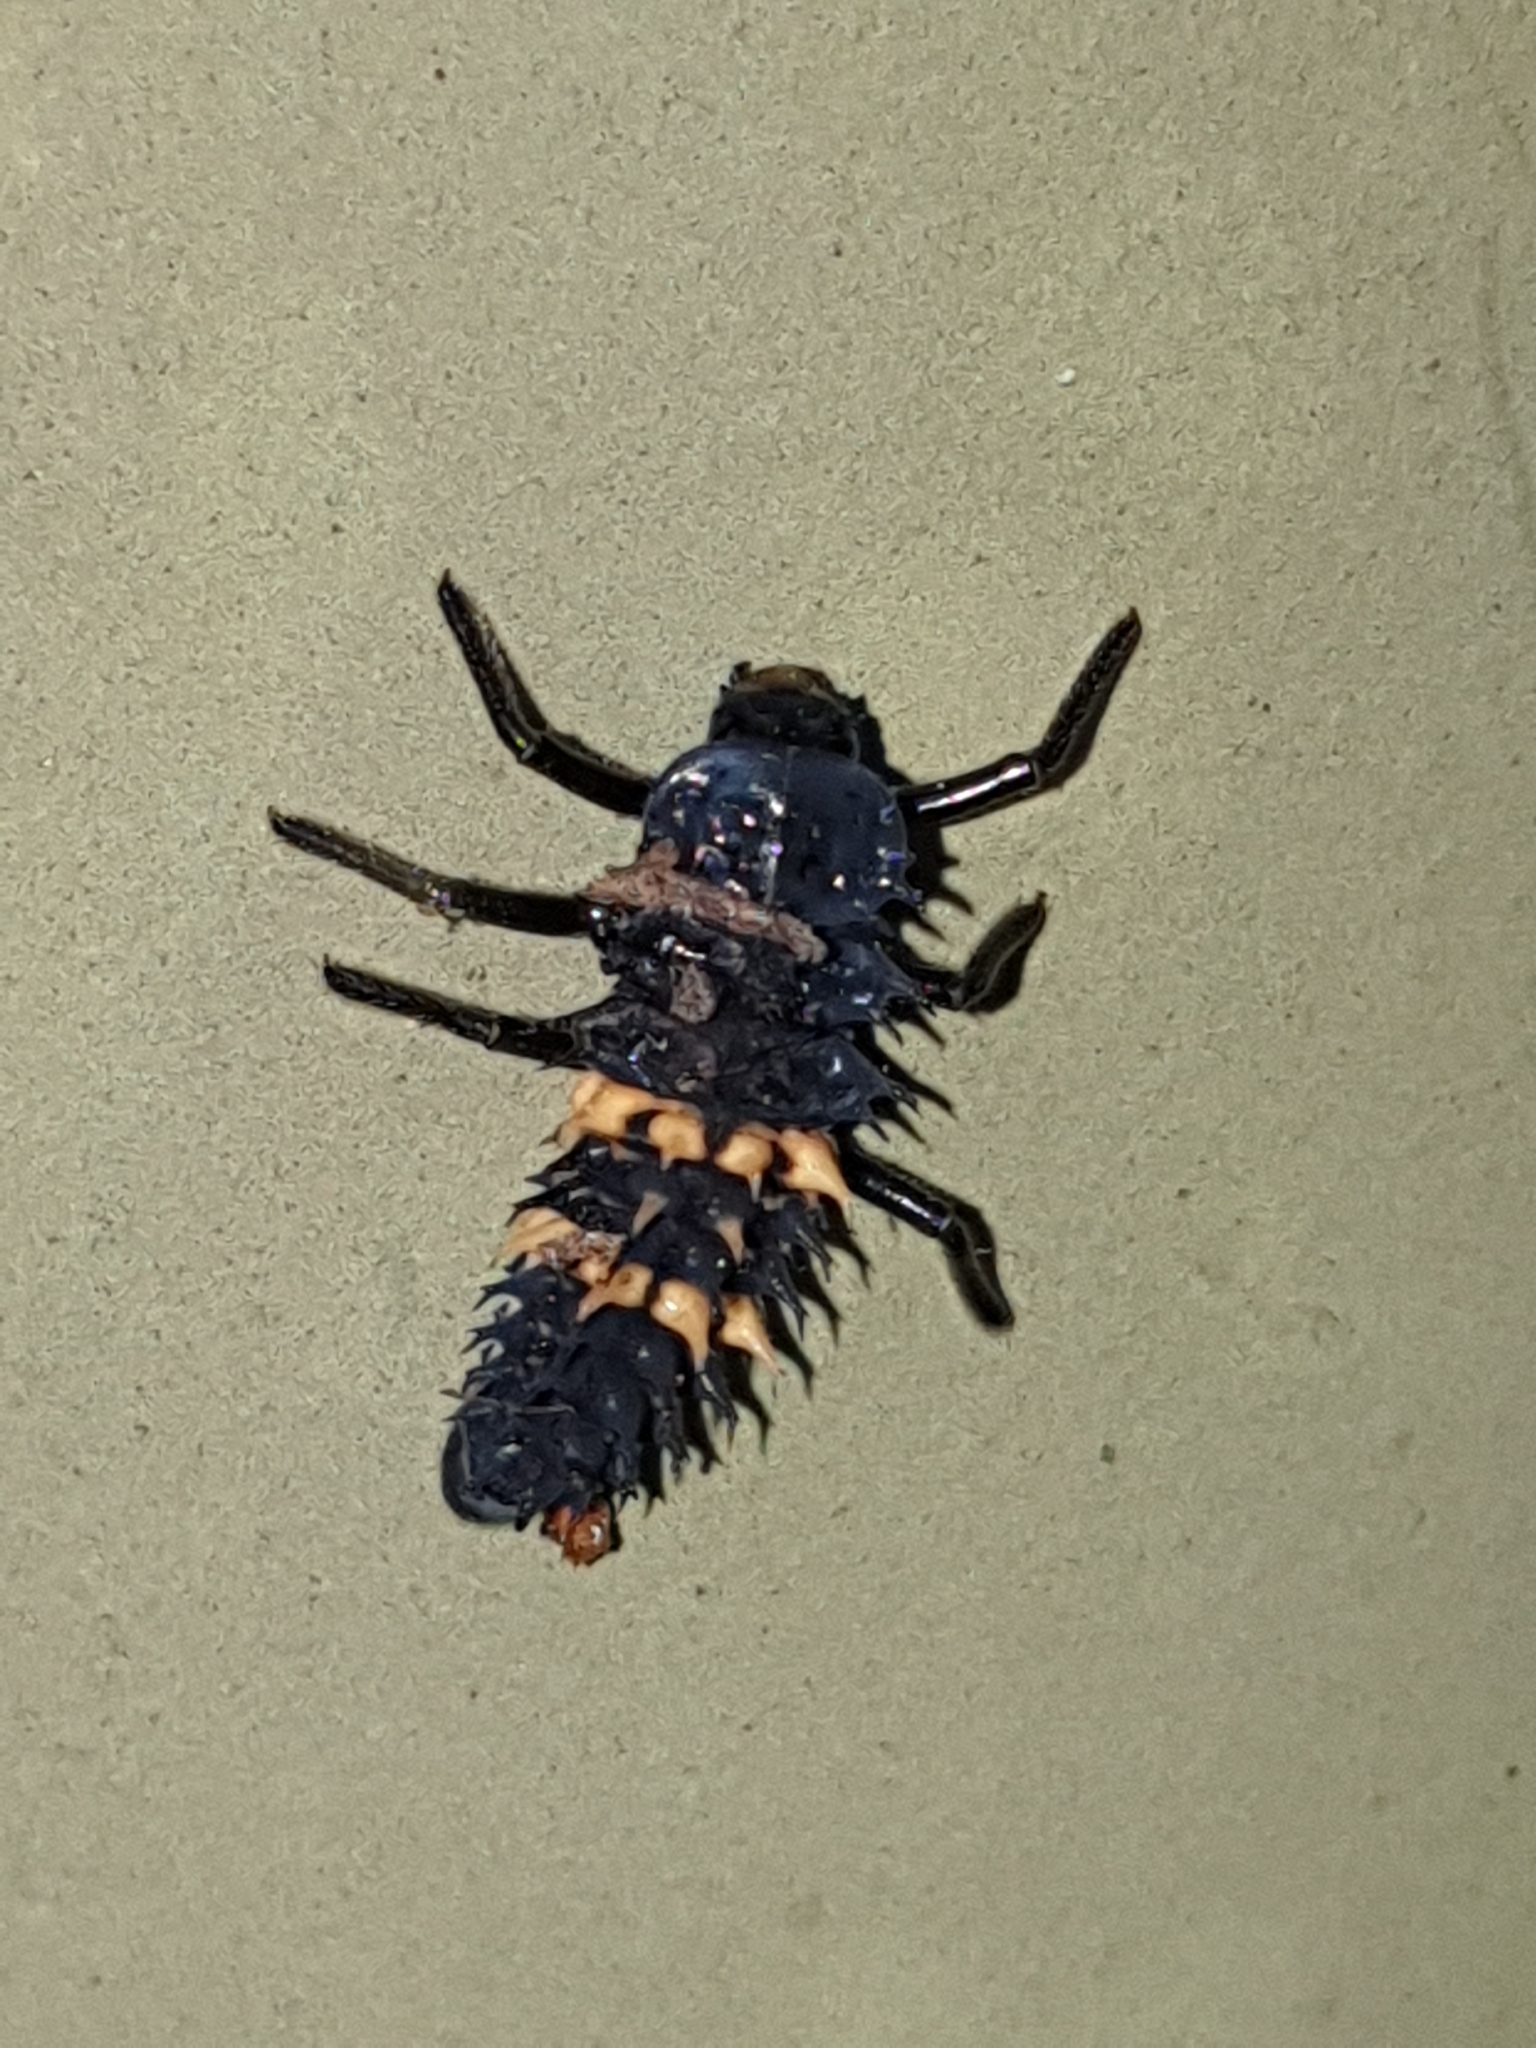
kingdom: Animalia
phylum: Arthropoda
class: Insecta
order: Coleoptera
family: Coccinellidae
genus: Harmonia
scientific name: Harmonia conformis
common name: Common spotted ladybird beetle
